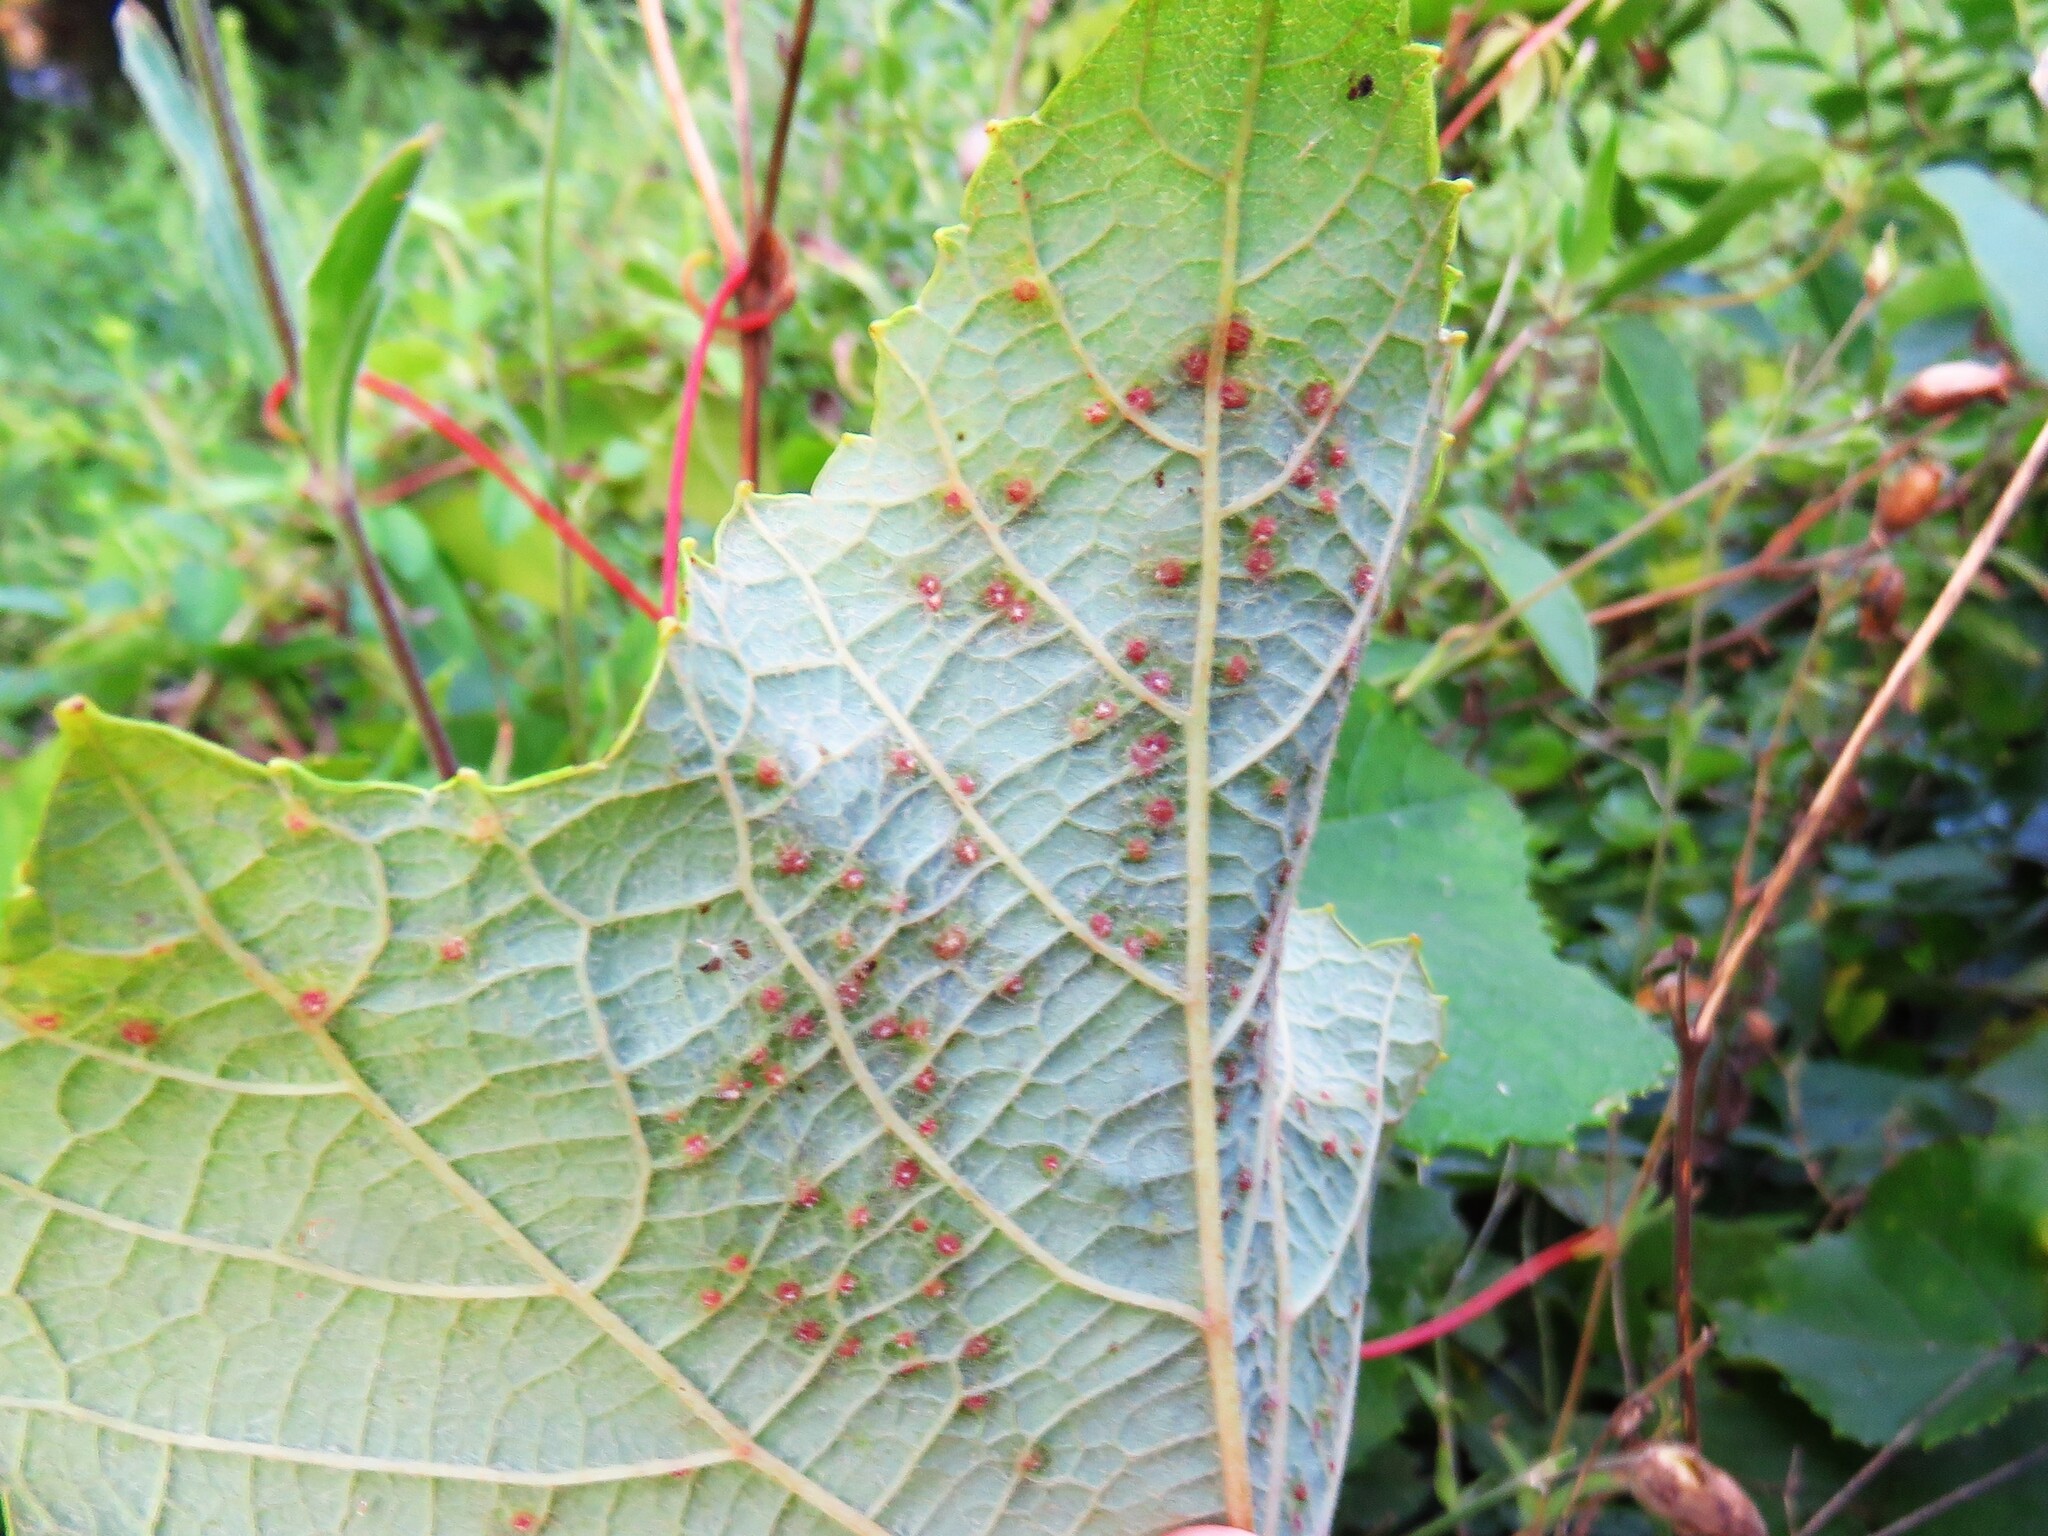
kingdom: Animalia
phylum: Arthropoda
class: Insecta
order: Diptera
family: Cecidomyiidae
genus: Ampelomyia
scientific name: Ampelomyia viticola
